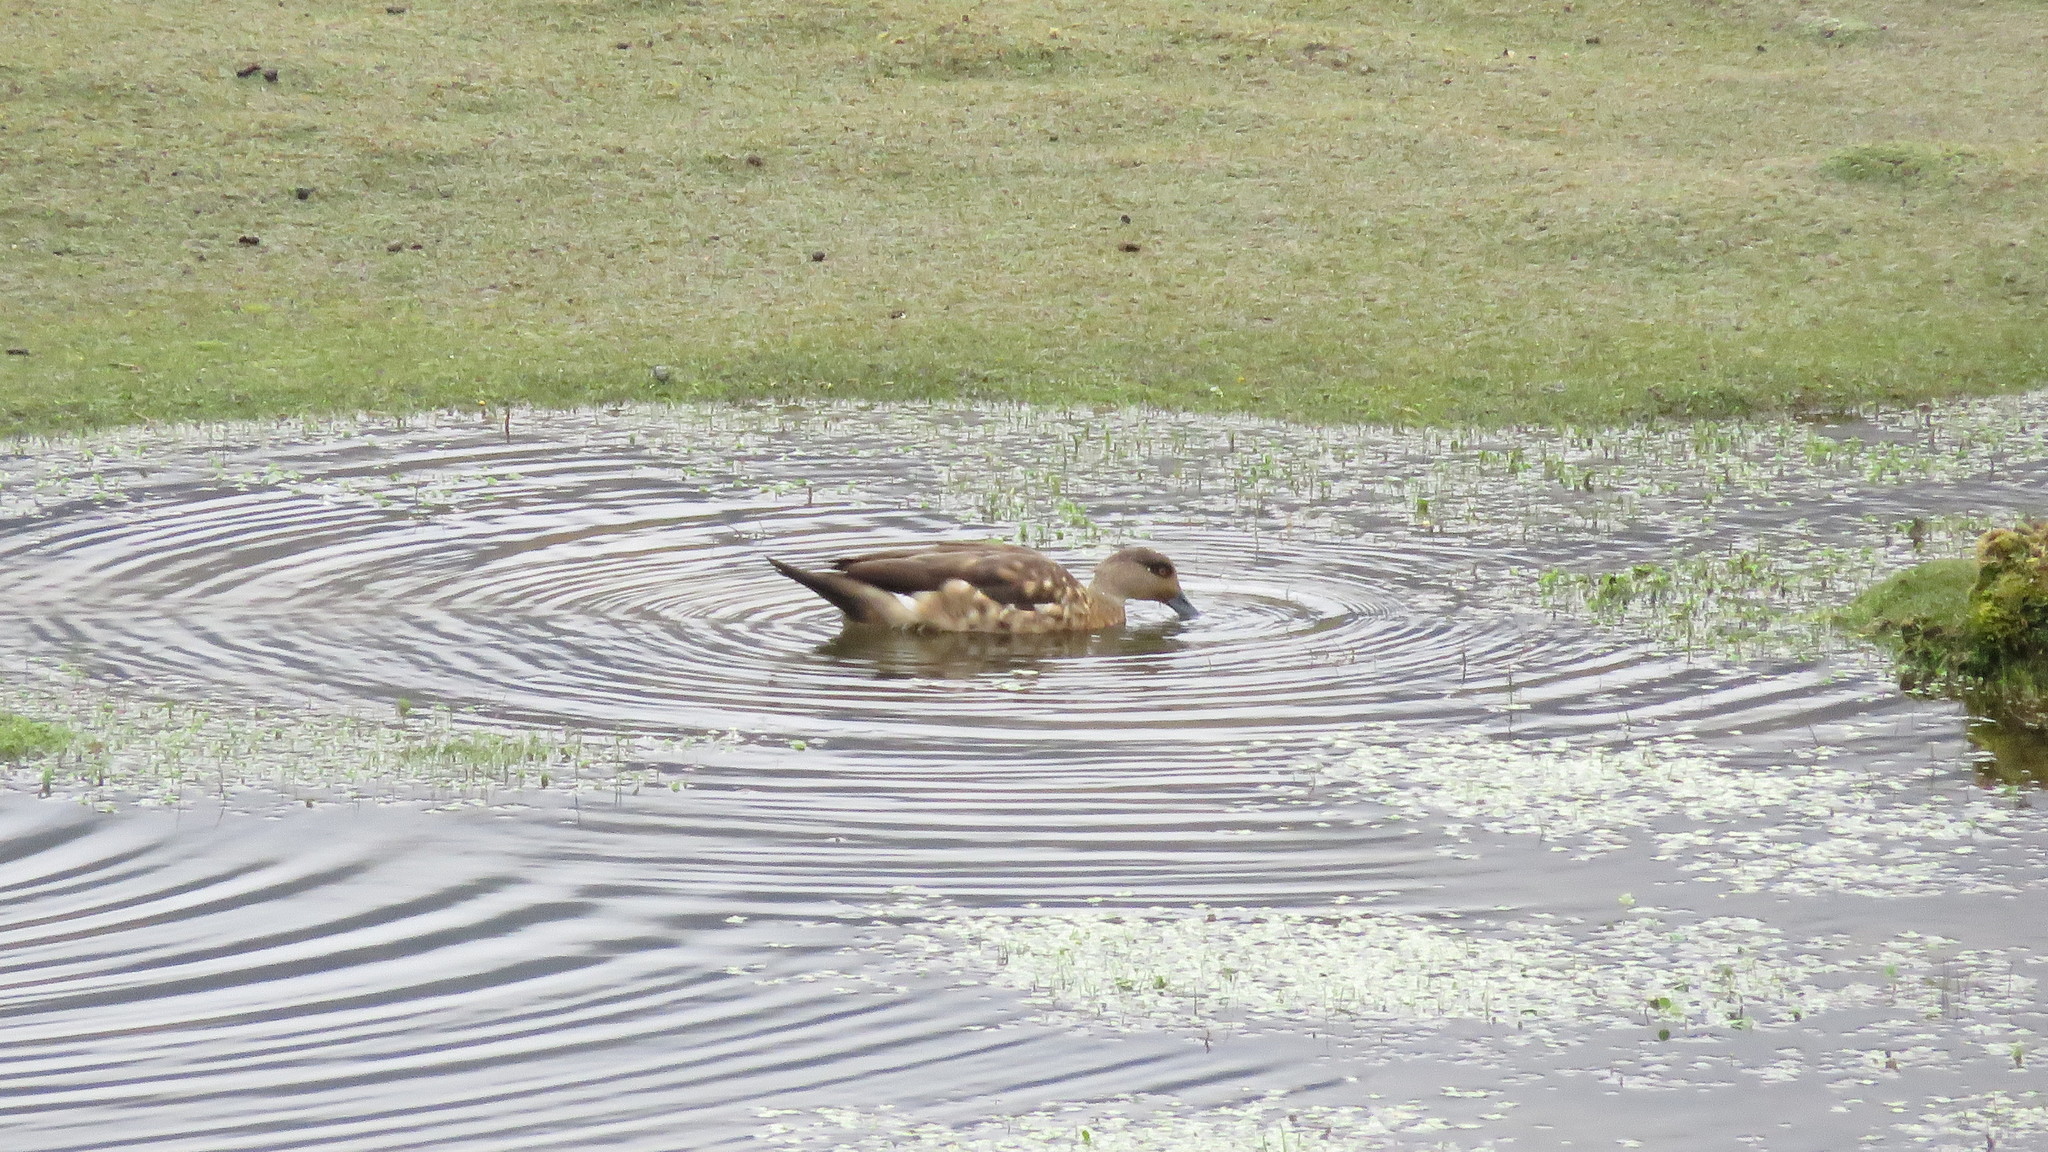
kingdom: Animalia
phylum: Chordata
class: Aves
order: Anseriformes
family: Anatidae
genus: Lophonetta
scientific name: Lophonetta specularioides
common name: Crested duck
